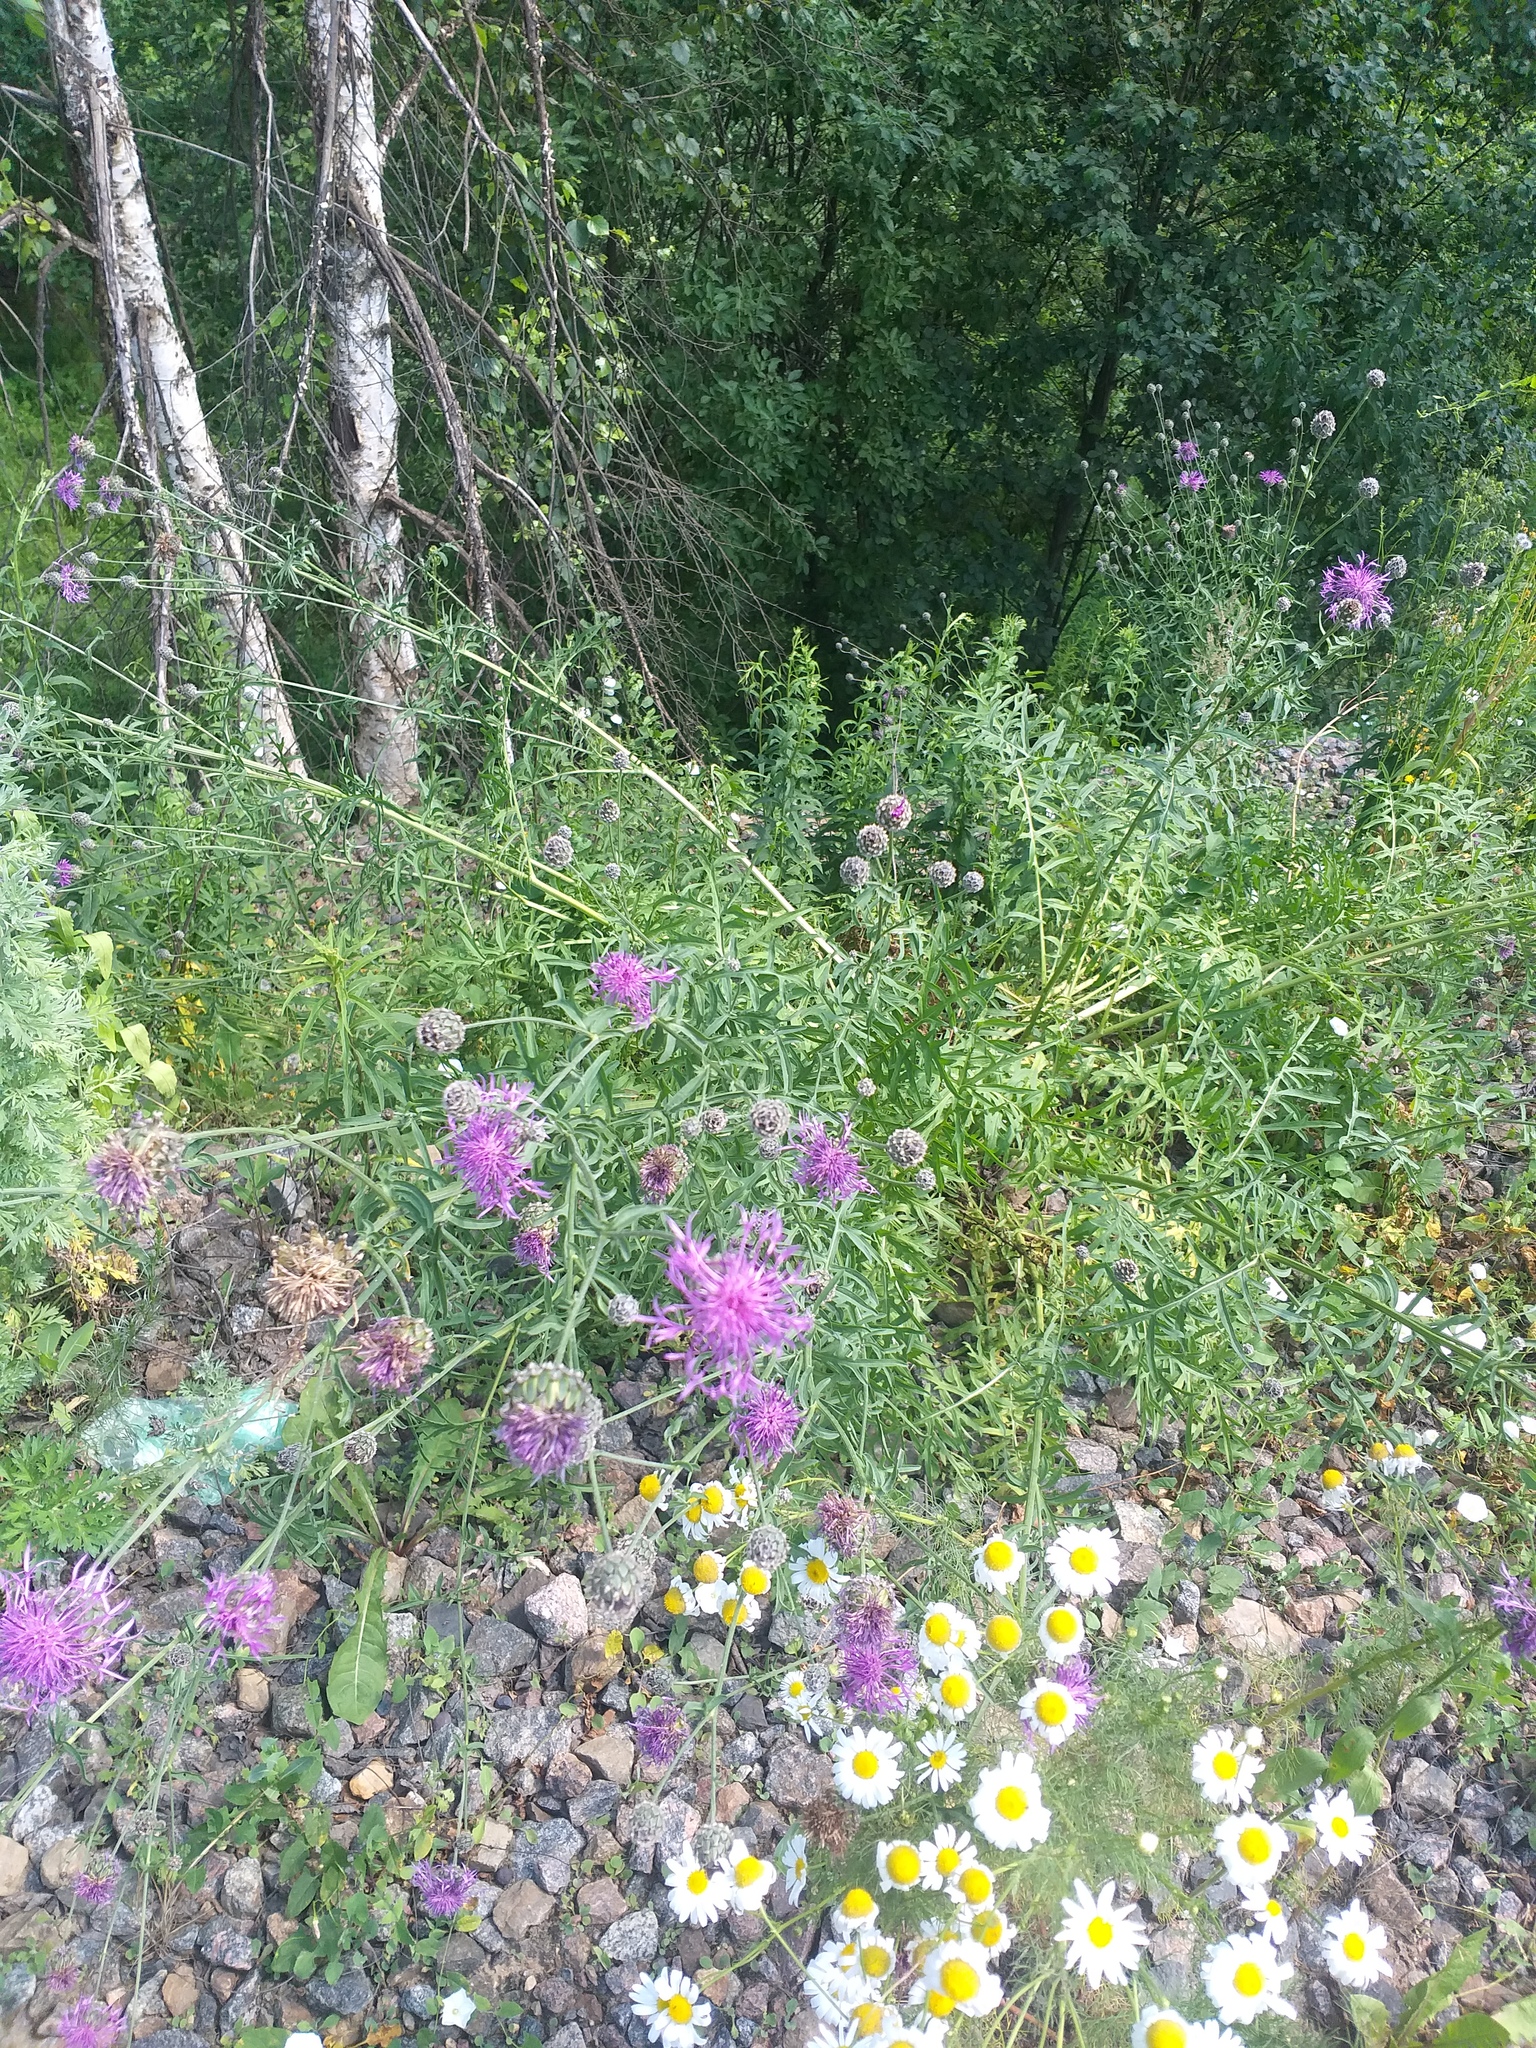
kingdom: Plantae
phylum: Tracheophyta
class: Magnoliopsida
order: Asterales
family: Asteraceae
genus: Centaurea
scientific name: Centaurea scabiosa
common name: Greater knapweed
